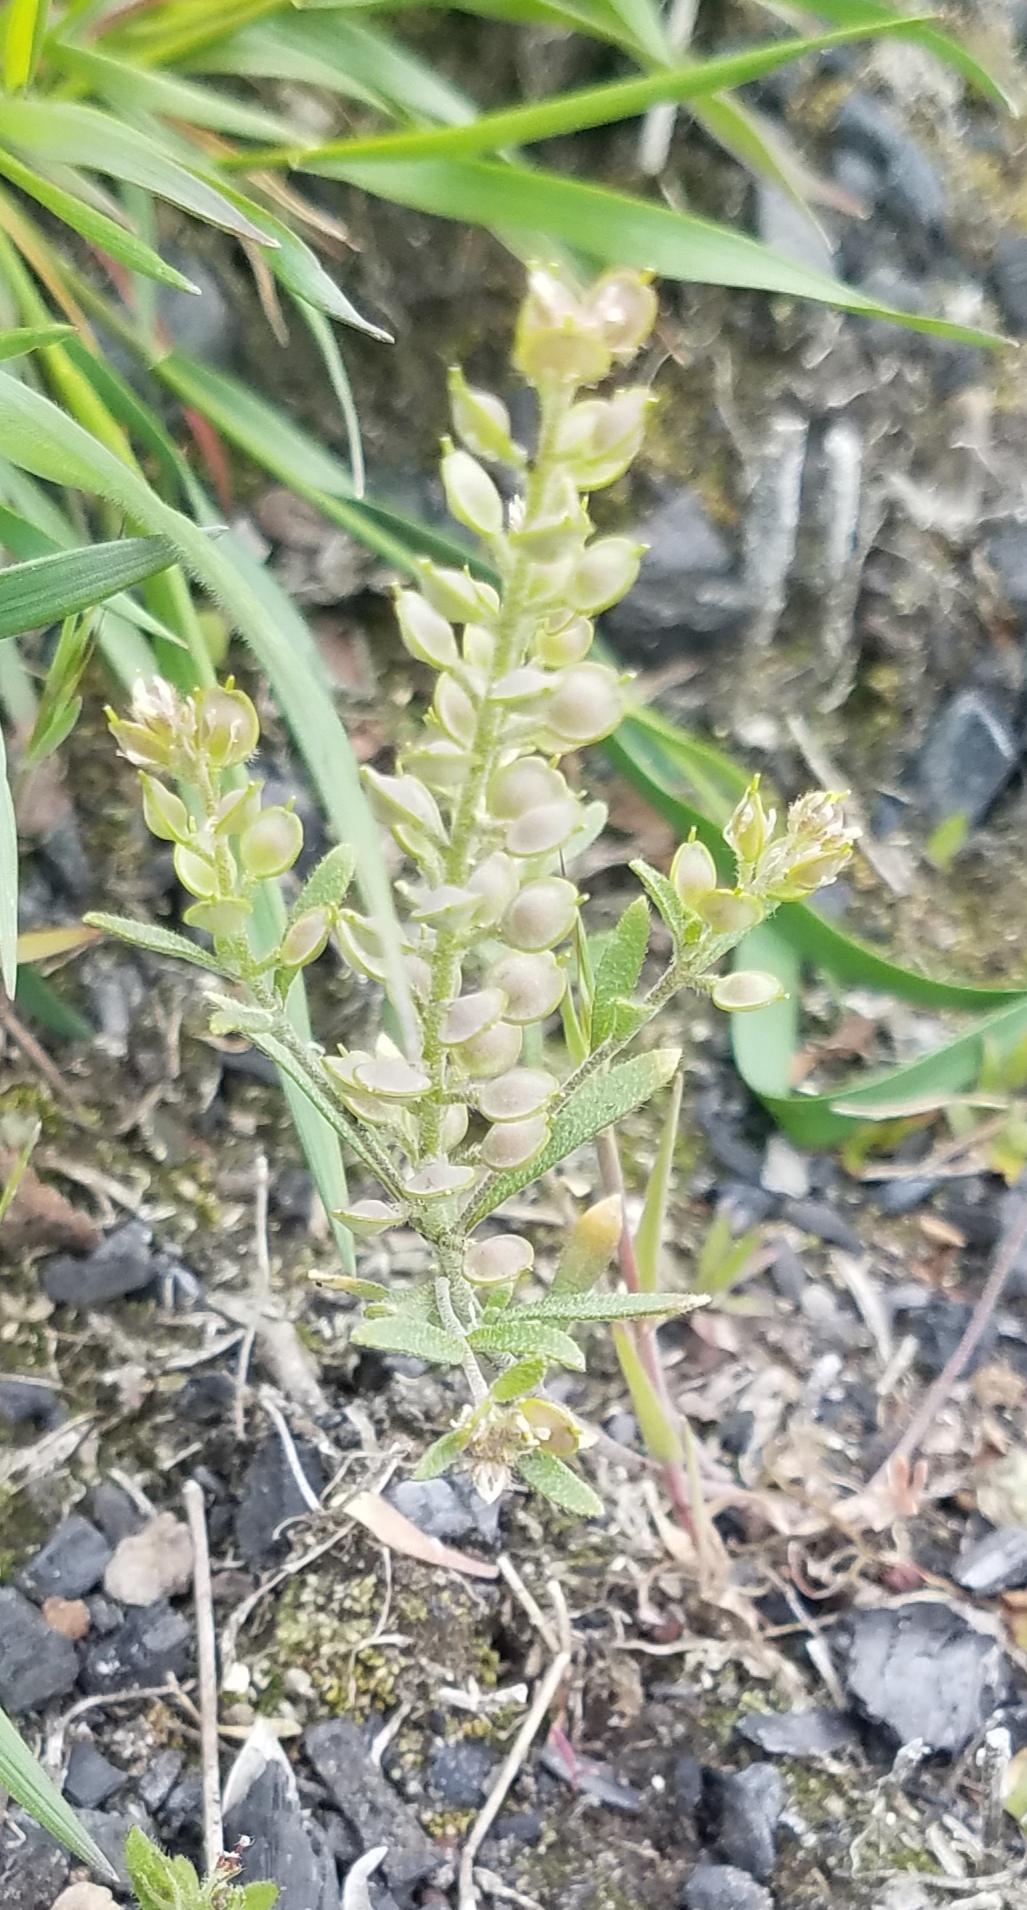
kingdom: Plantae
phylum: Tracheophyta
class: Magnoliopsida
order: Brassicales
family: Brassicaceae
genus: Alyssum
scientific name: Alyssum turkestanicum
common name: Desert alyssum
